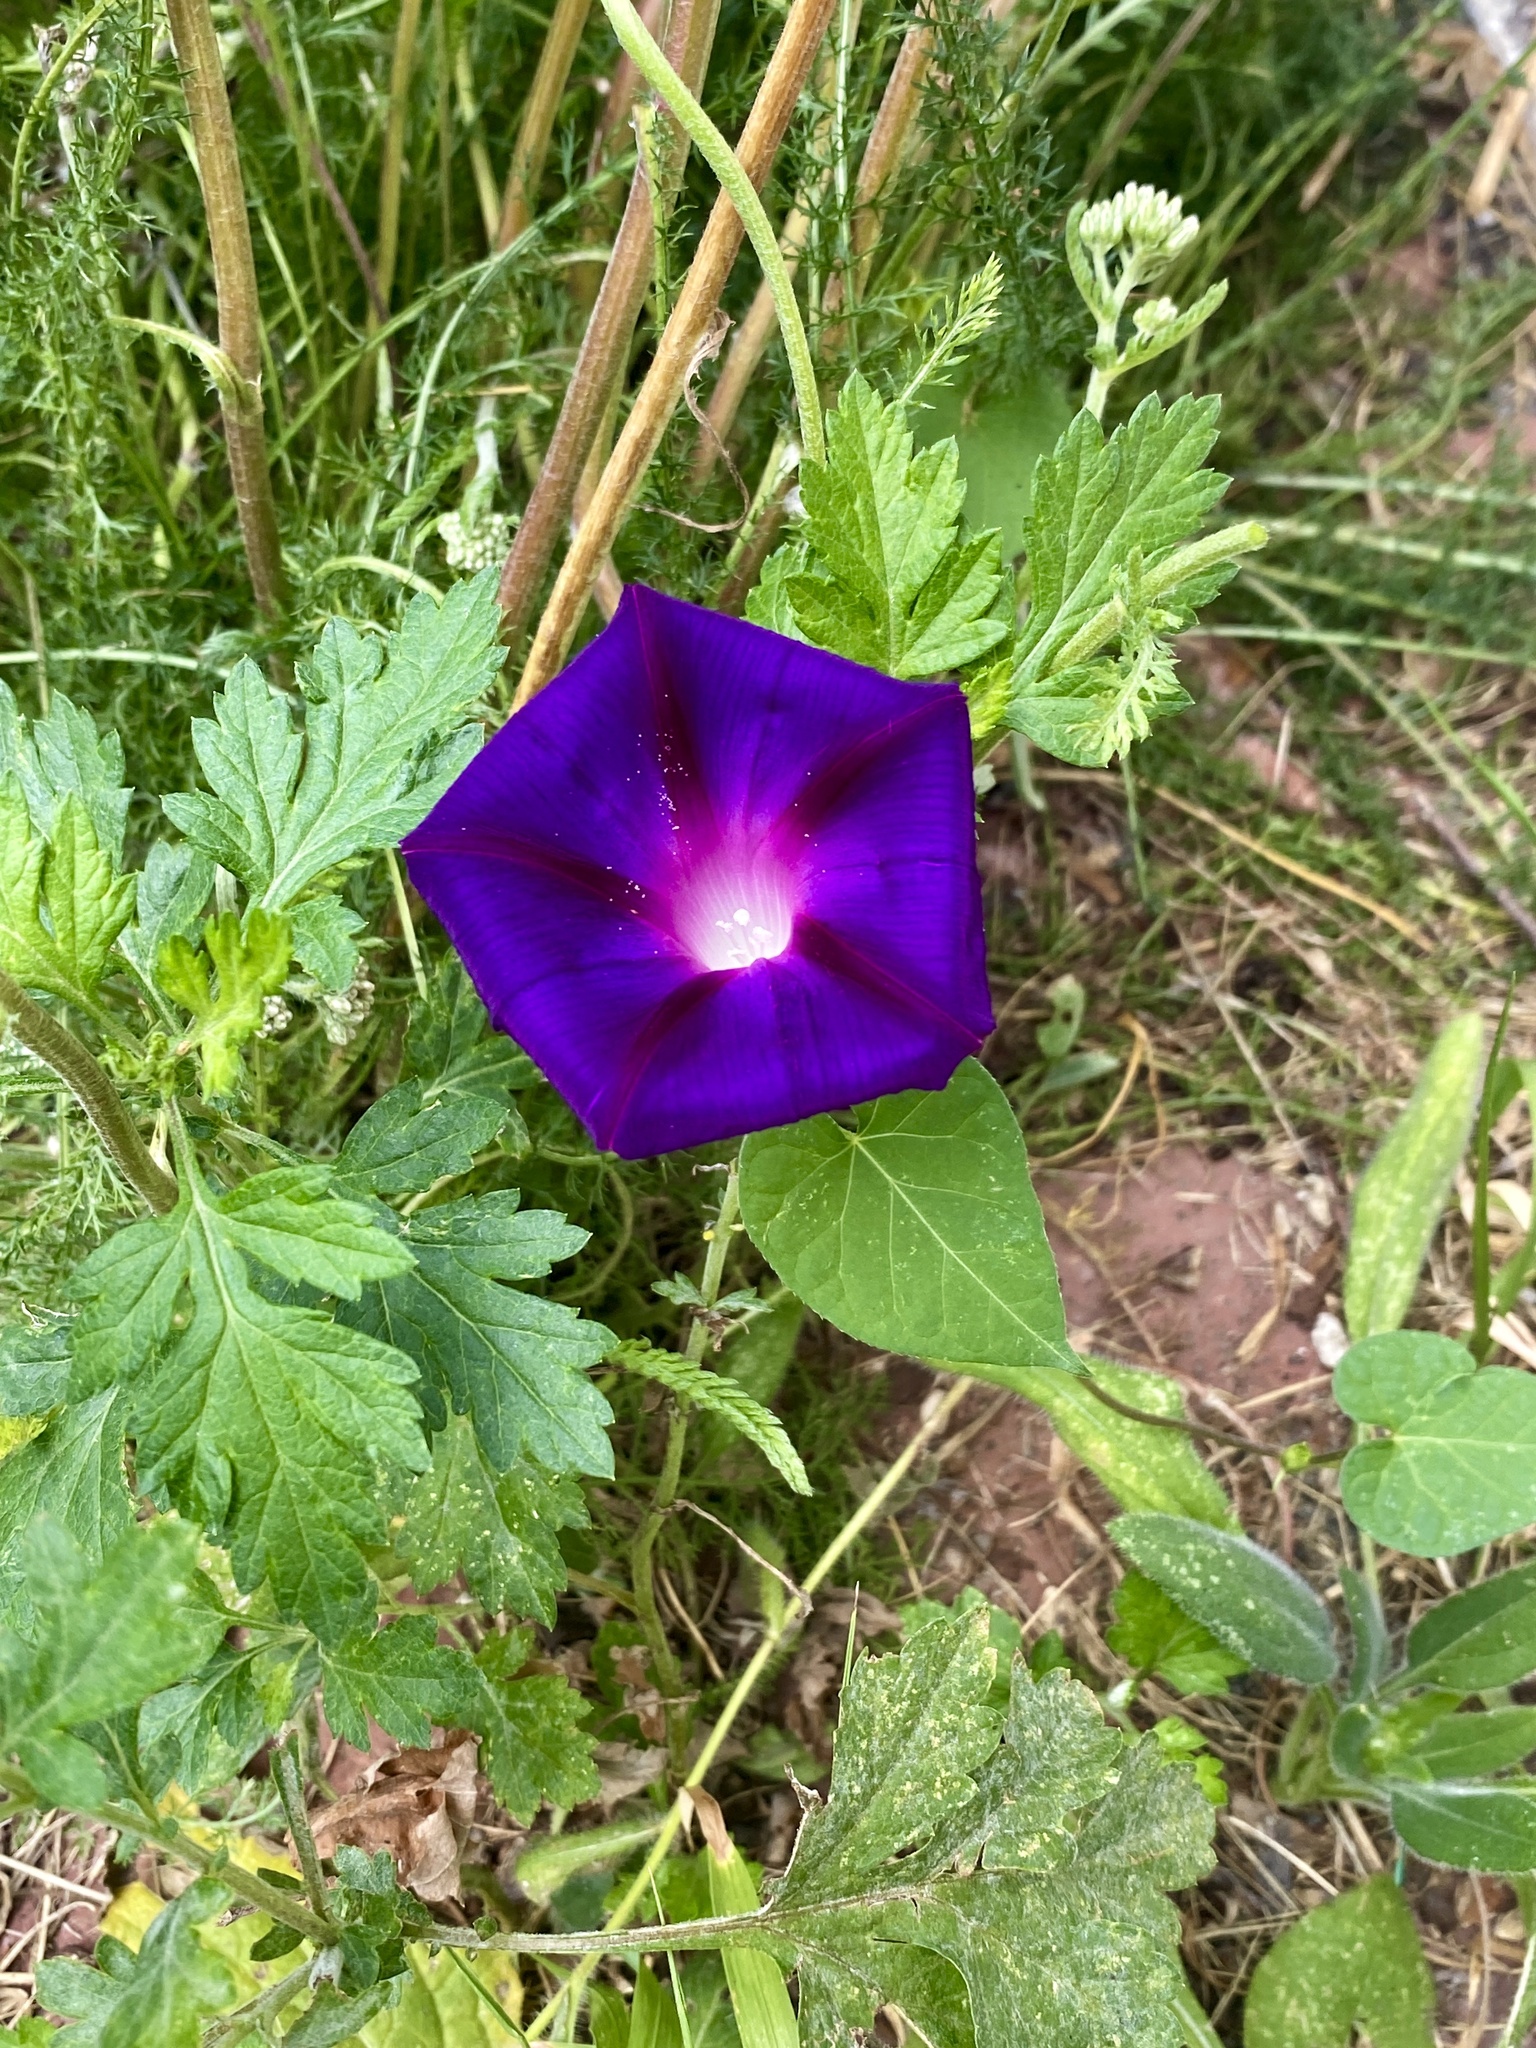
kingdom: Plantae
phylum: Tracheophyta
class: Magnoliopsida
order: Solanales
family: Convolvulaceae
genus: Ipomoea
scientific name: Ipomoea purpurea
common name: Common morning-glory
